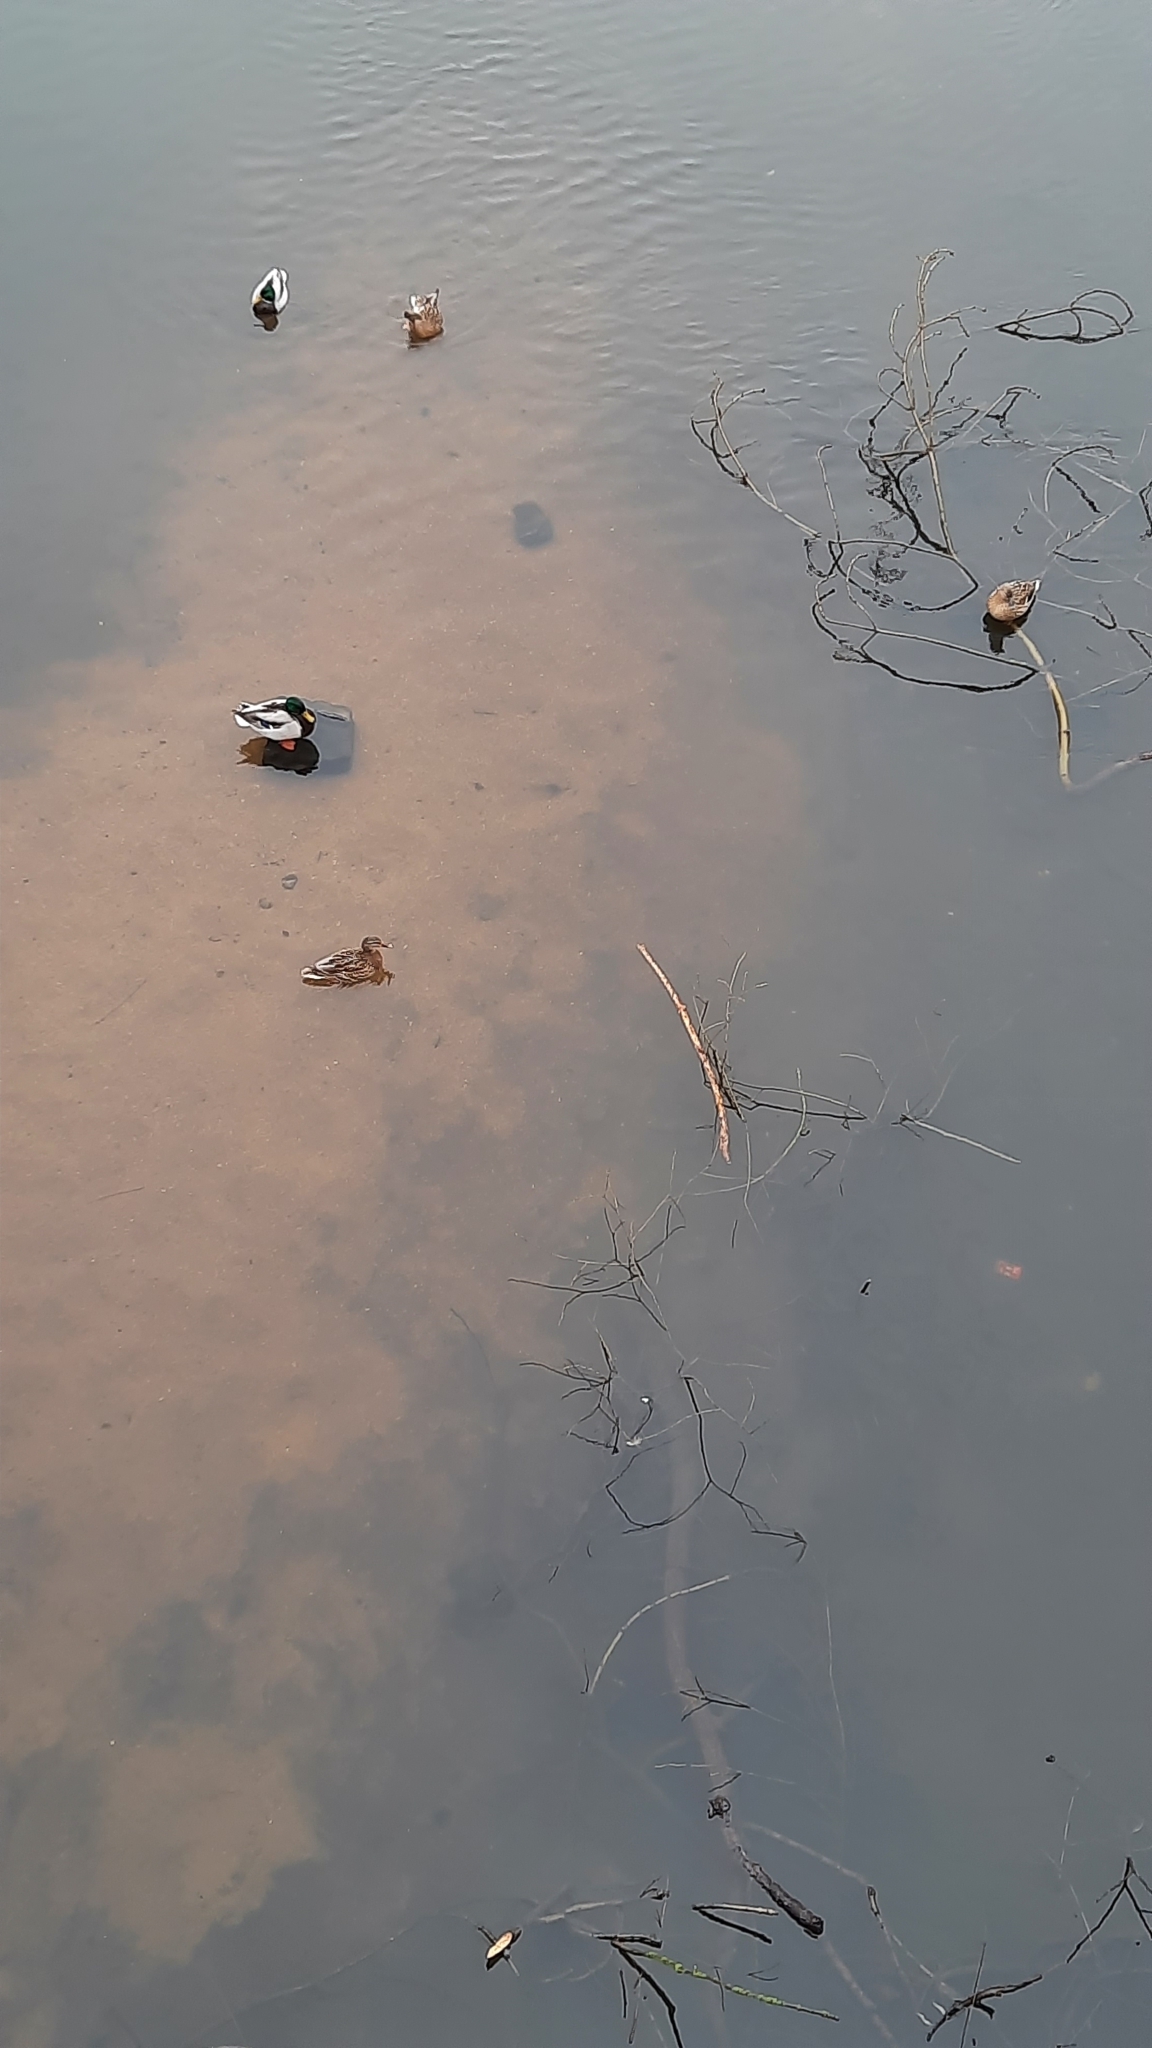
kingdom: Animalia
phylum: Chordata
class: Aves
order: Anseriformes
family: Anatidae
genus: Anas
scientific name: Anas platyrhynchos
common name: Mallard
